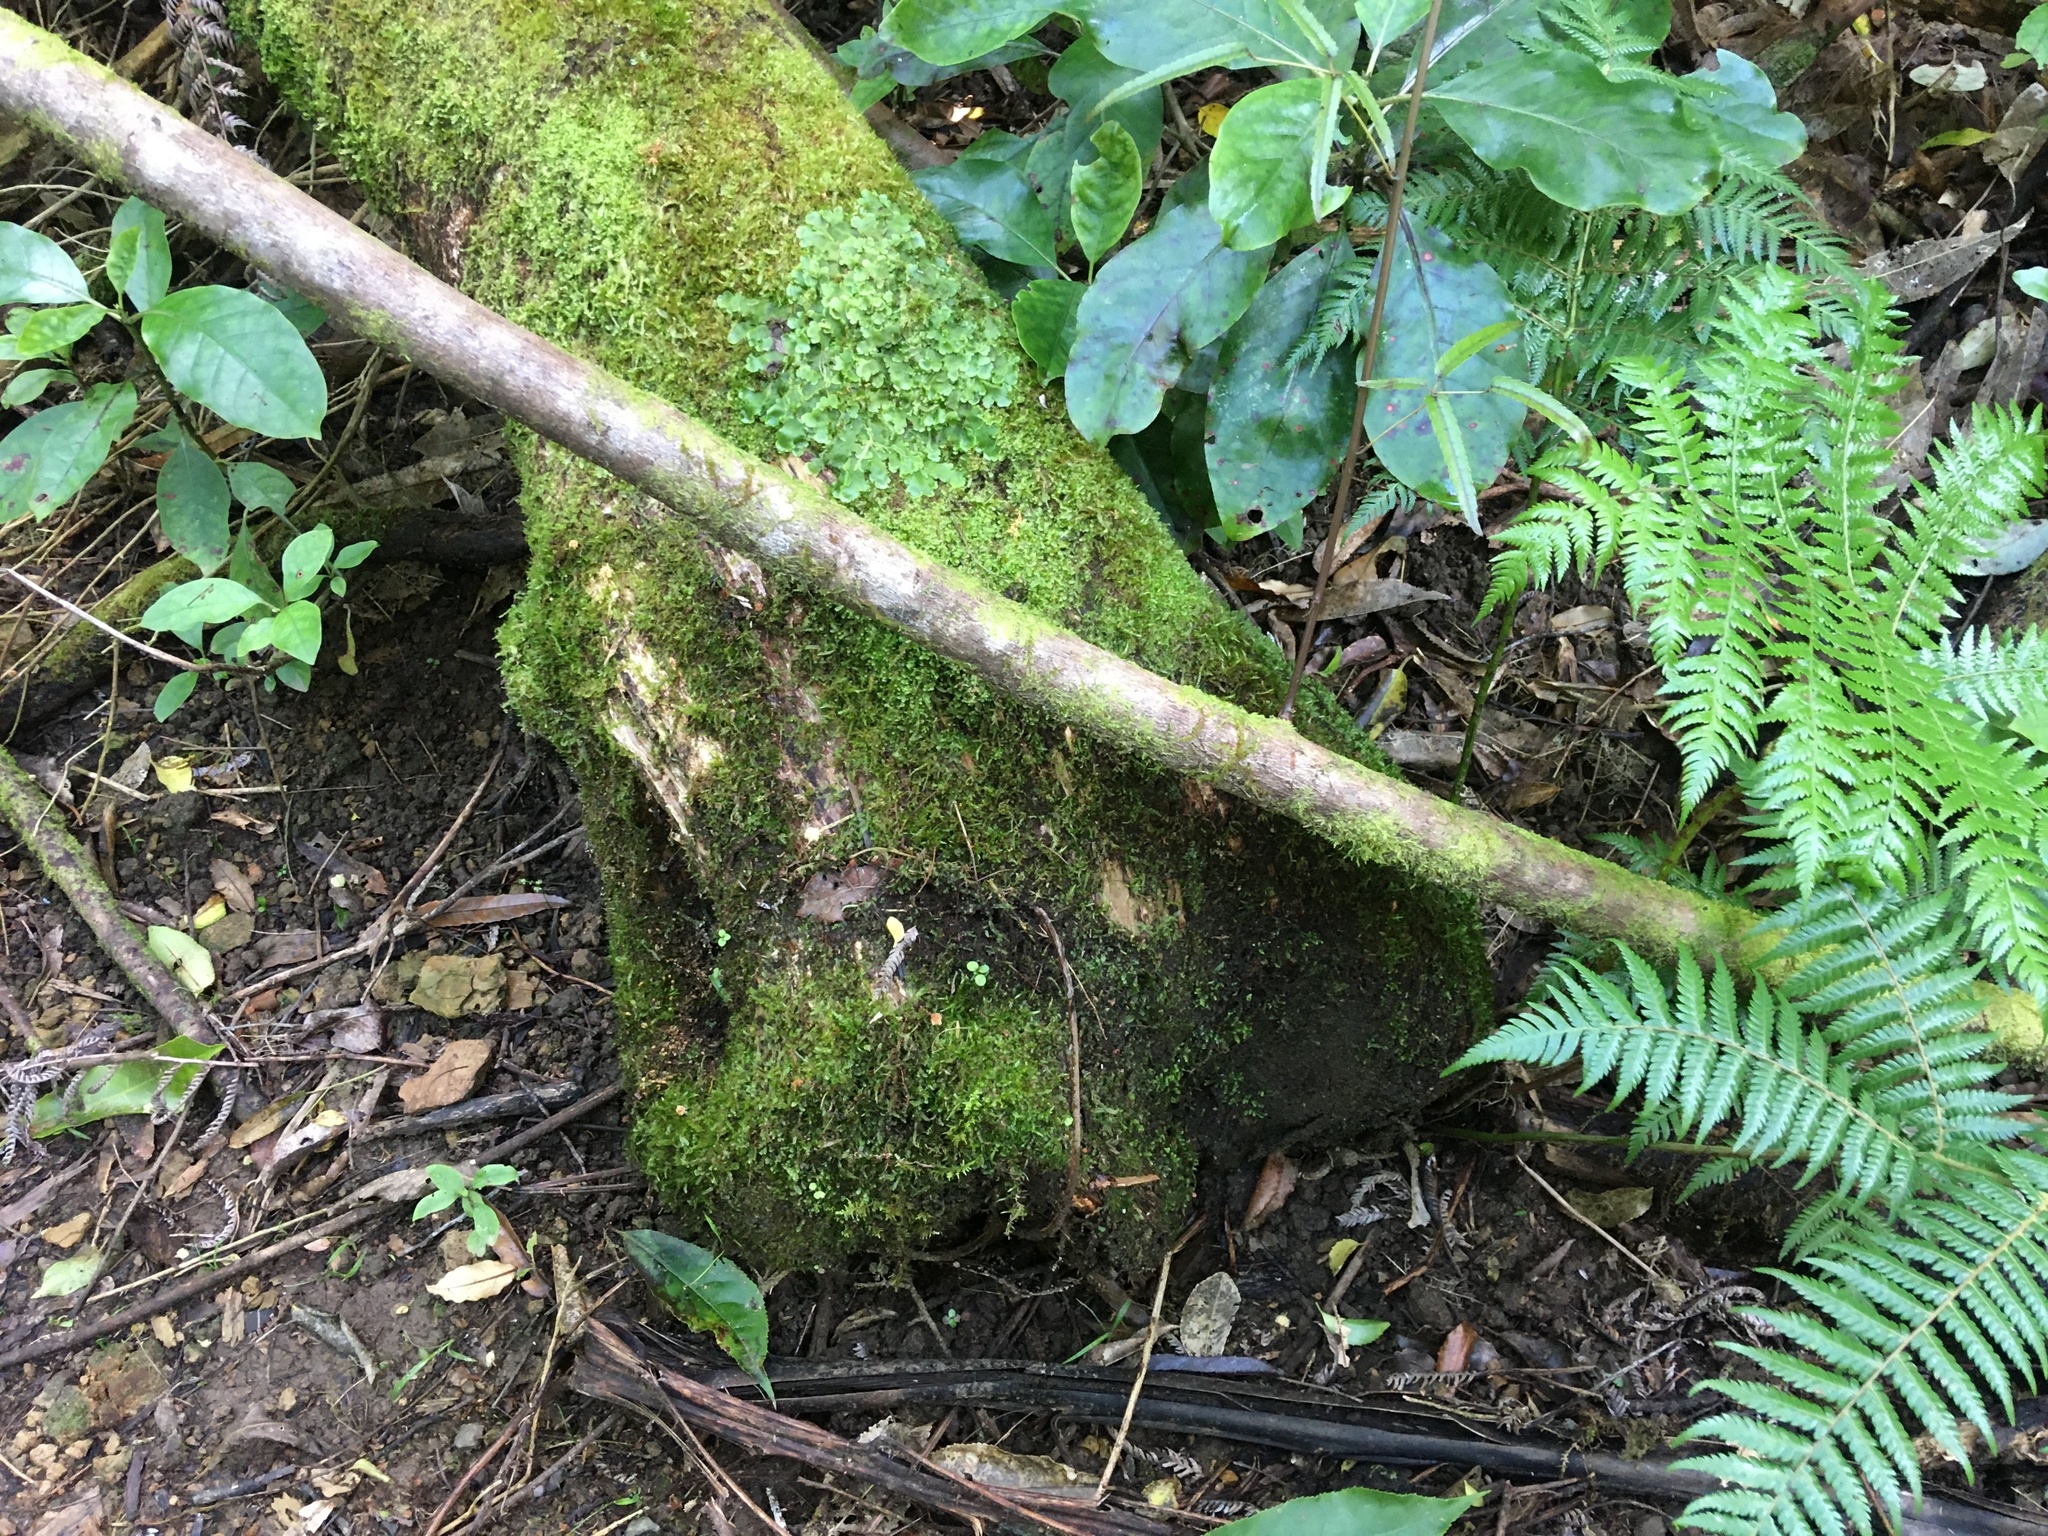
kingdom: Plantae
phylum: Tracheophyta
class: Magnoliopsida
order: Rosales
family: Rosaceae
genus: Rubus
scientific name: Rubus cissoides
